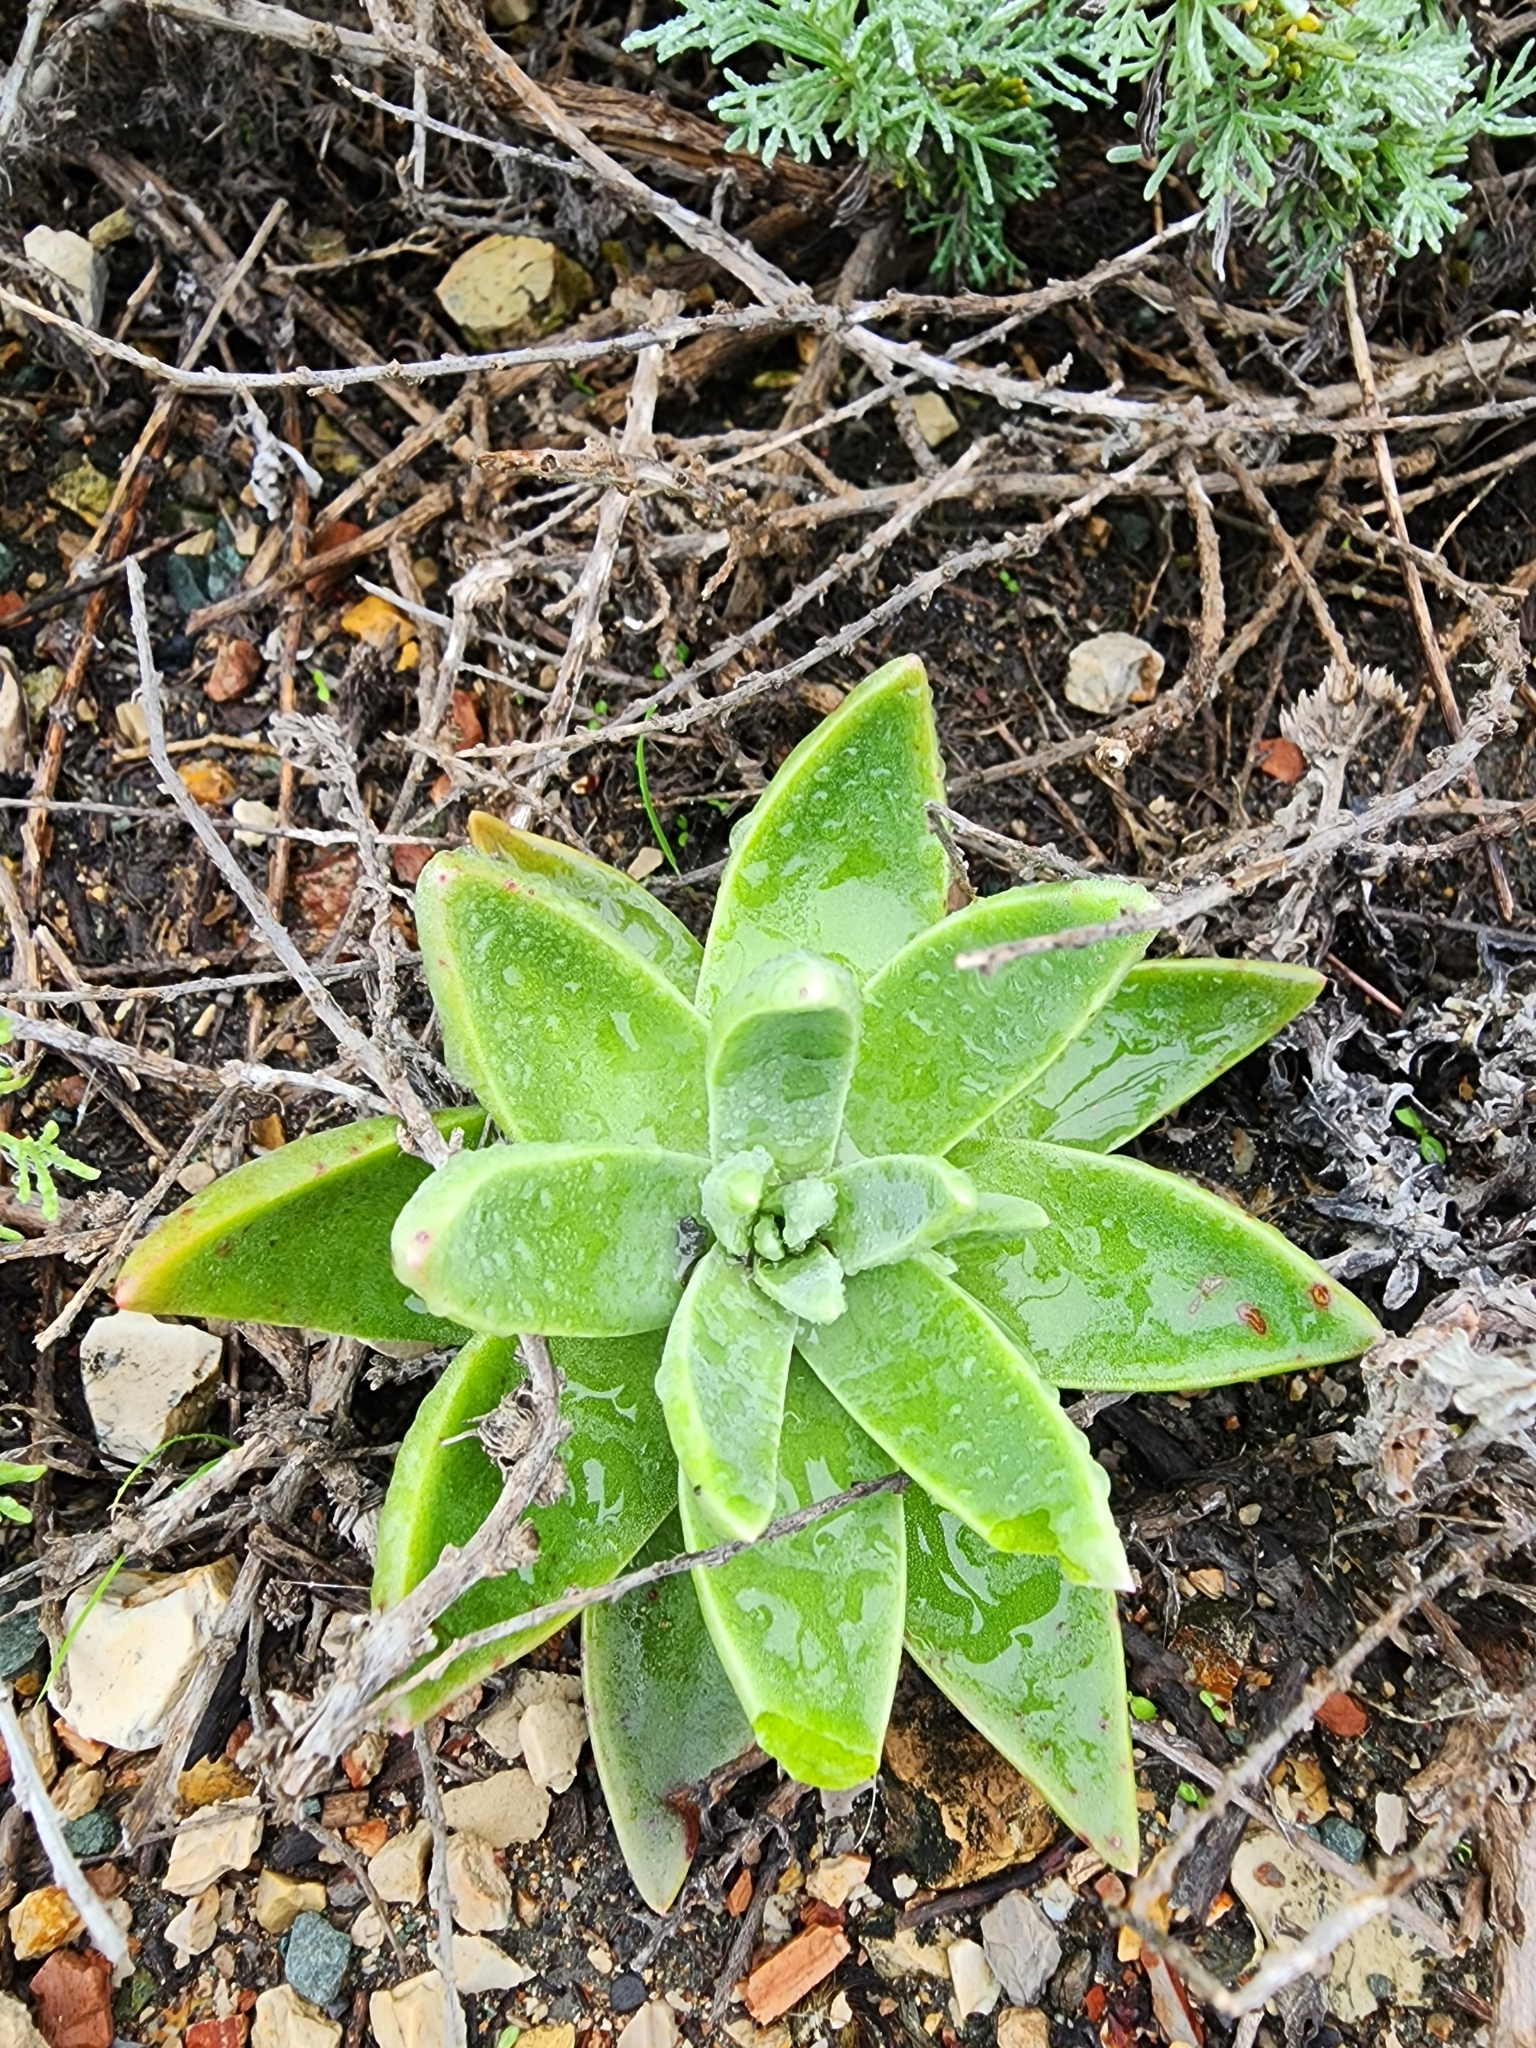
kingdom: Plantae
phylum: Tracheophyta
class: Magnoliopsida
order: Saxifragales
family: Crassulaceae
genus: Dudleya
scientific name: Dudleya lanceolata
